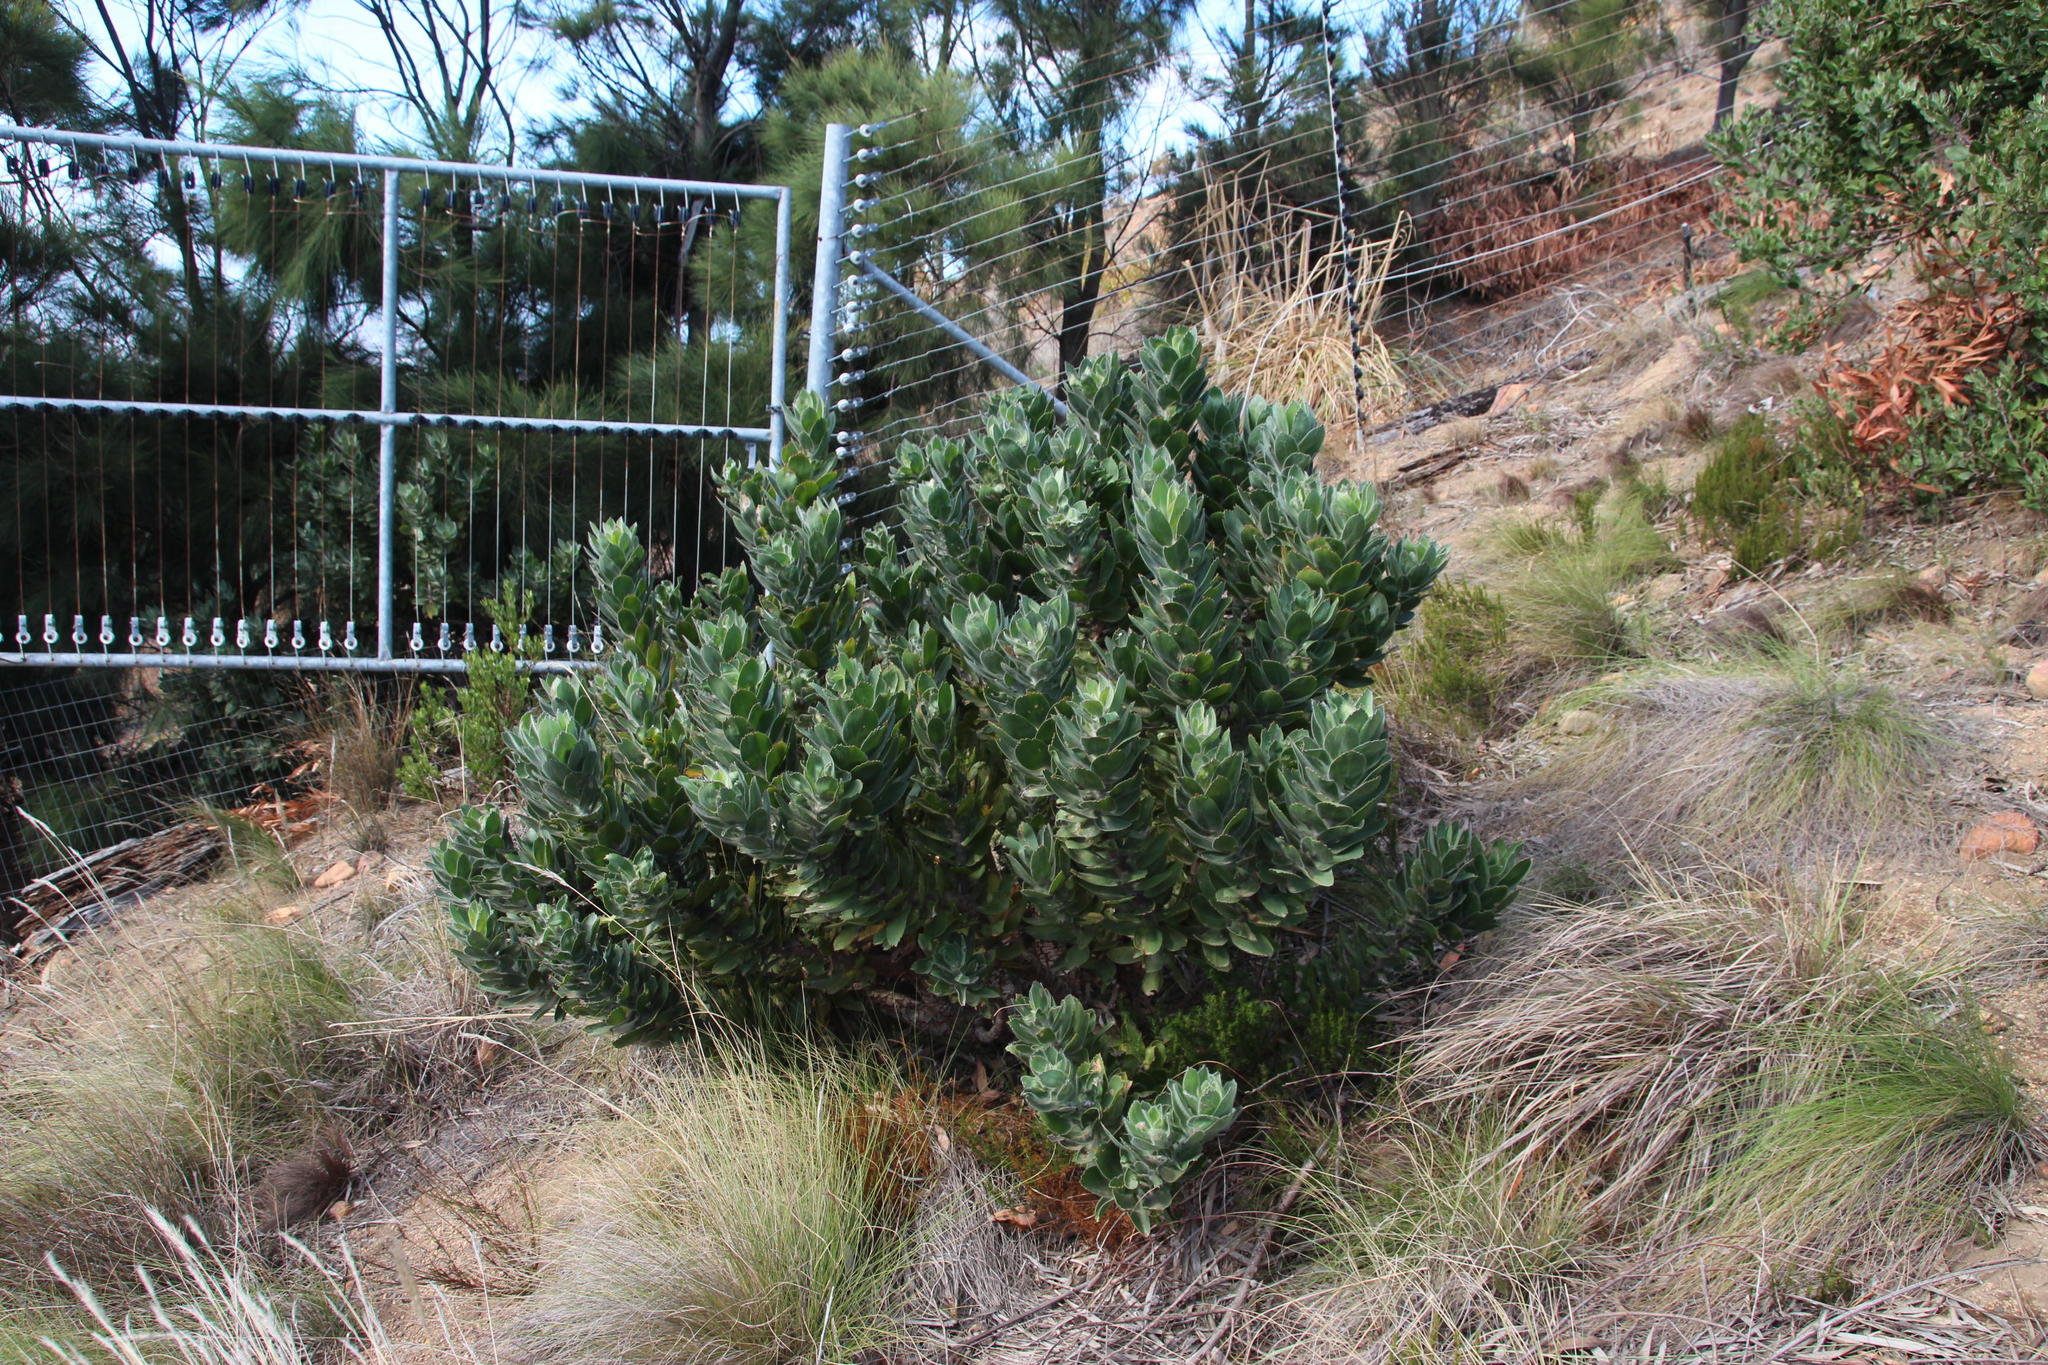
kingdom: Plantae
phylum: Tracheophyta
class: Magnoliopsida
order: Proteales
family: Proteaceae
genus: Leucospermum
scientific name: Leucospermum conocarpodendron
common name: Tree pincushion
